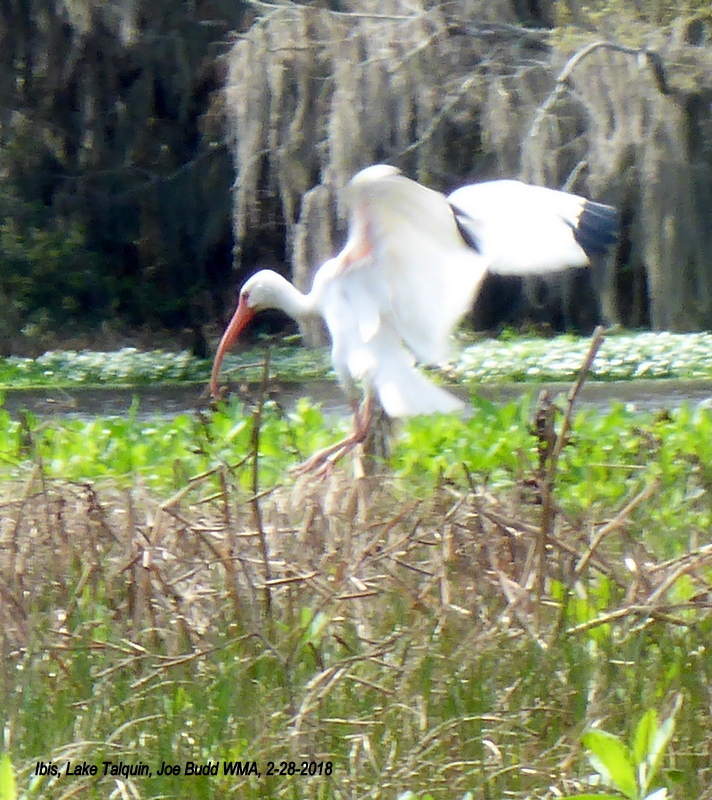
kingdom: Animalia
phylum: Chordata
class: Aves
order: Pelecaniformes
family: Threskiornithidae
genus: Eudocimus
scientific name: Eudocimus albus
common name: White ibis
